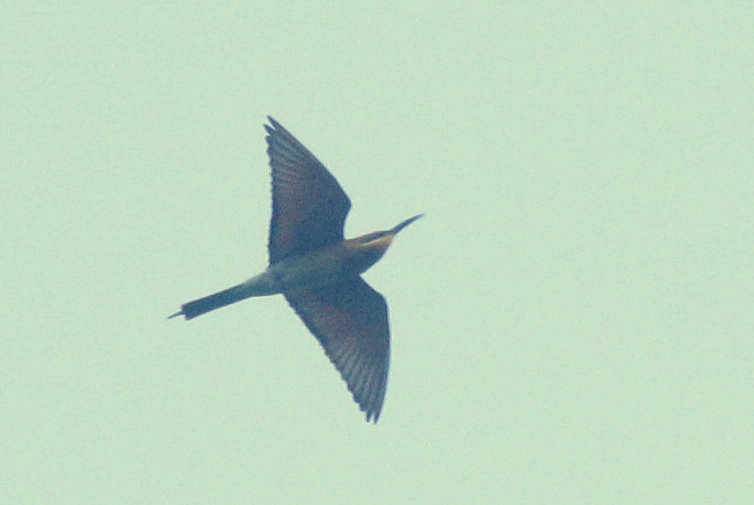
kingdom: Animalia
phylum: Chordata
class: Aves
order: Coraciiformes
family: Meropidae
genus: Merops
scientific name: Merops philippinus
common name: Blue-tailed bee-eater
